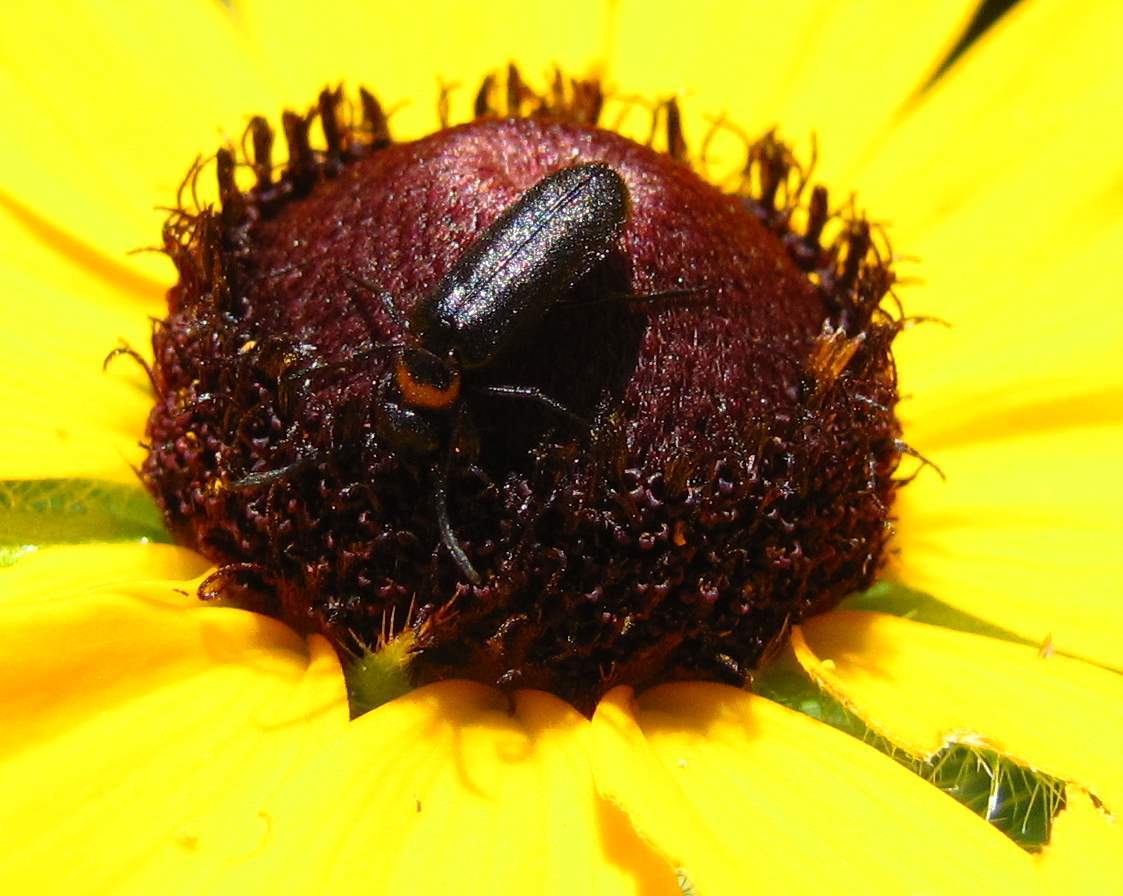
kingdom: Animalia
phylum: Arthropoda
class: Insecta
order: Coleoptera
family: Meloidae
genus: Nemognatha
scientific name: Nemognatha nemorensis
